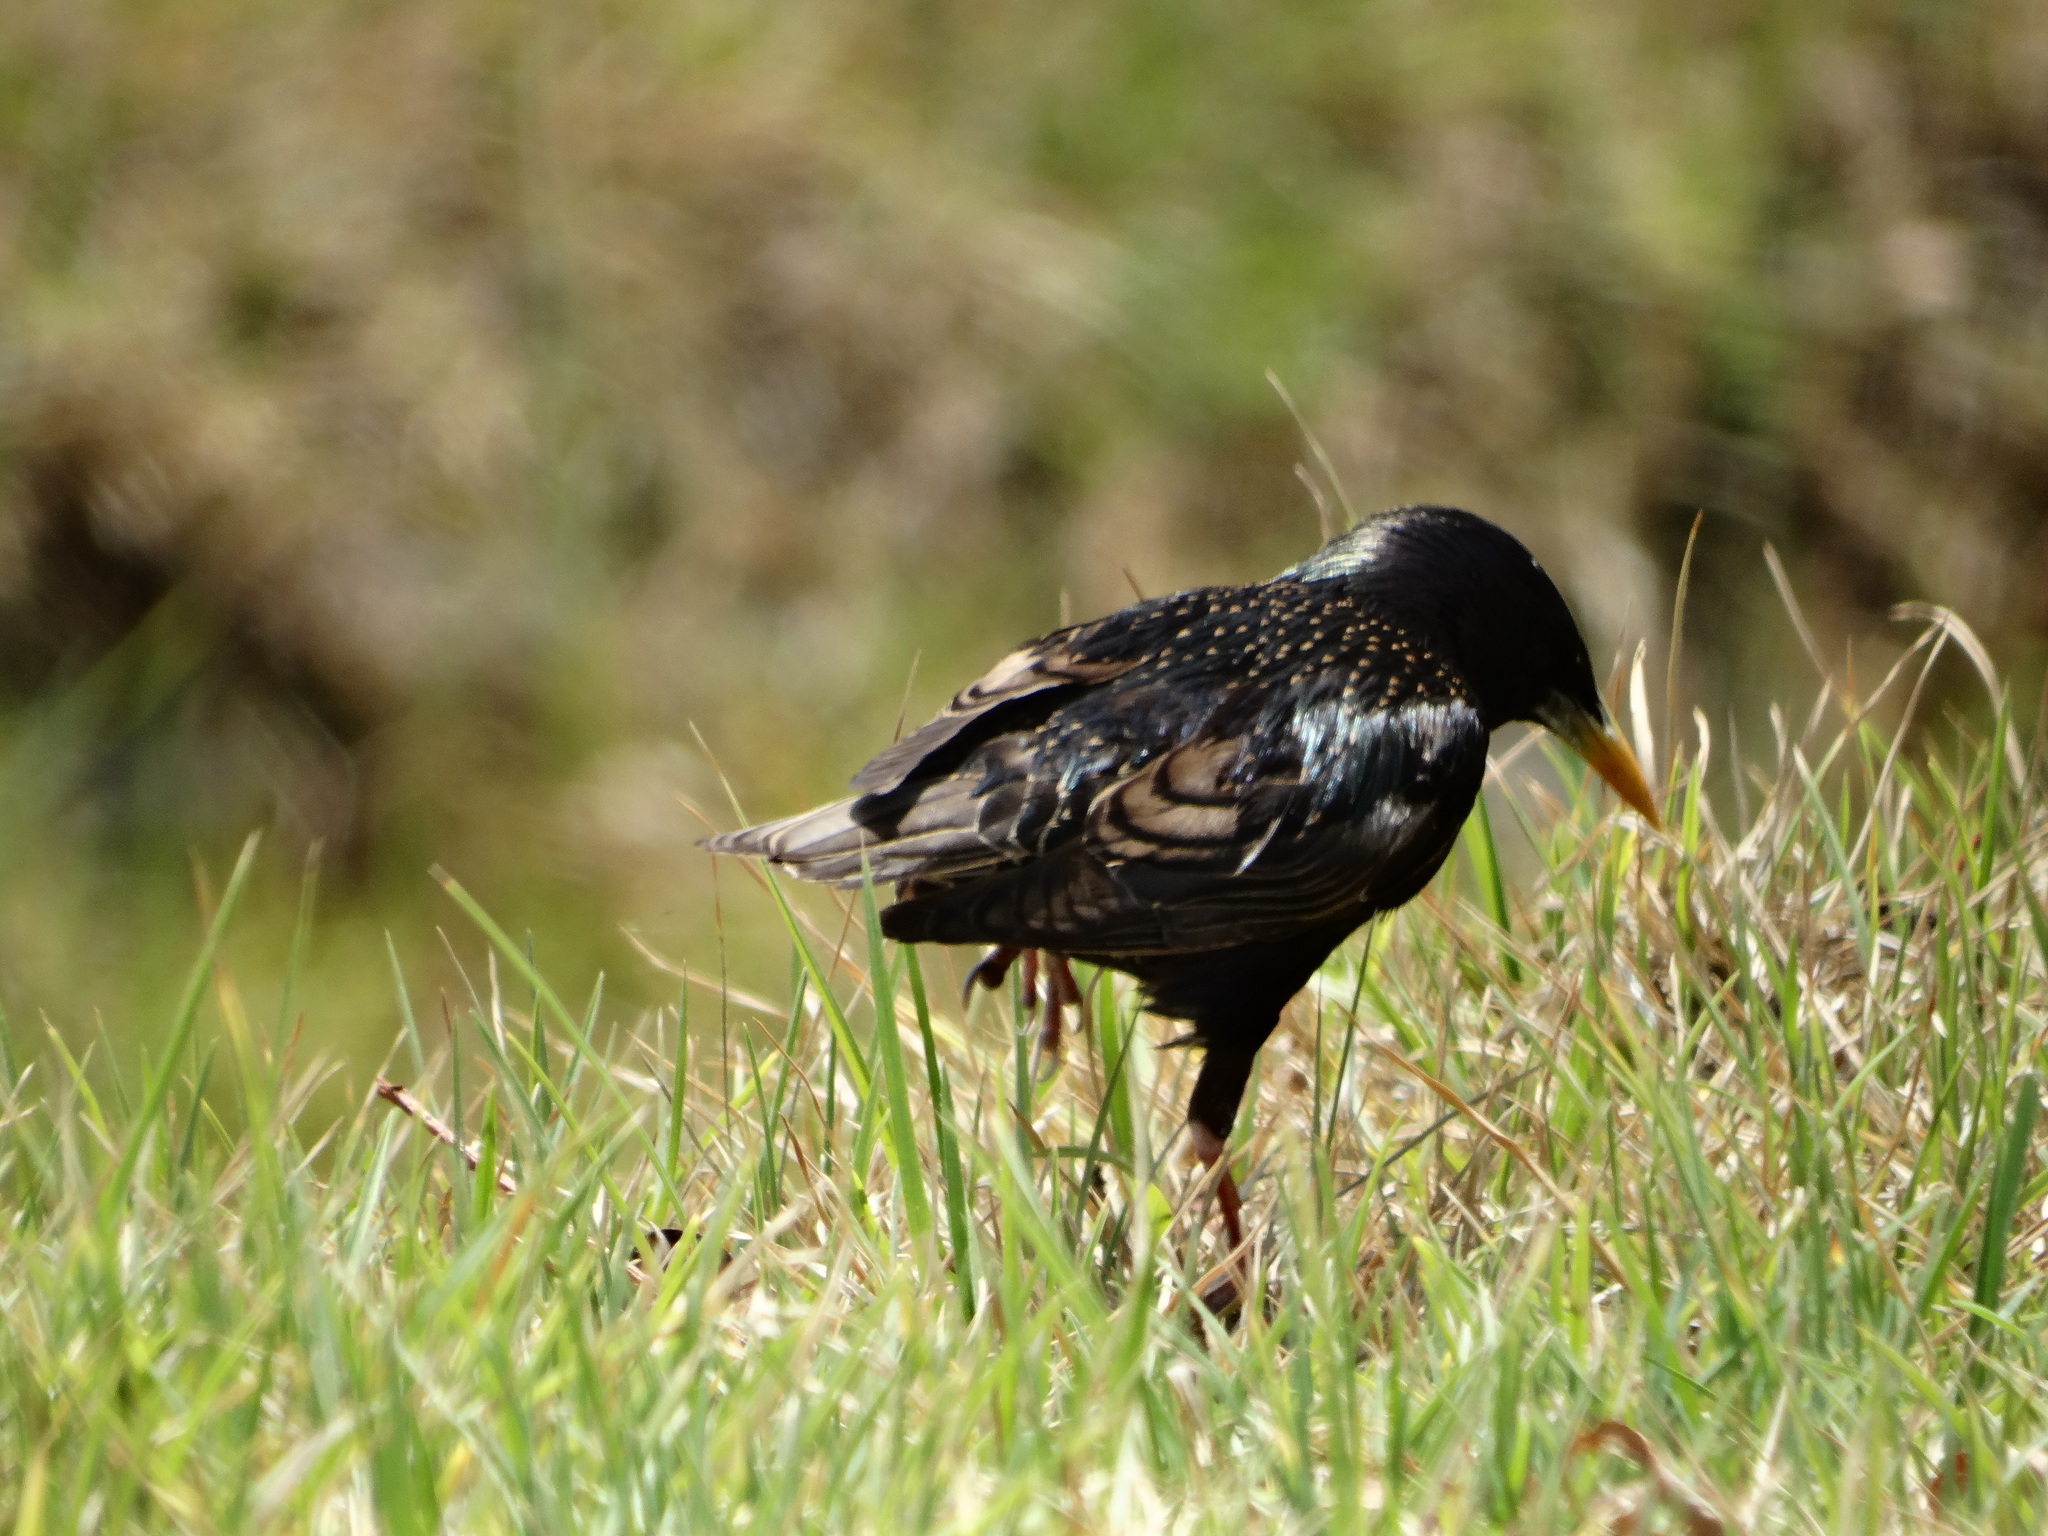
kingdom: Animalia
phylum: Chordata
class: Aves
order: Passeriformes
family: Sturnidae
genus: Sturnus
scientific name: Sturnus vulgaris
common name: Common starling
